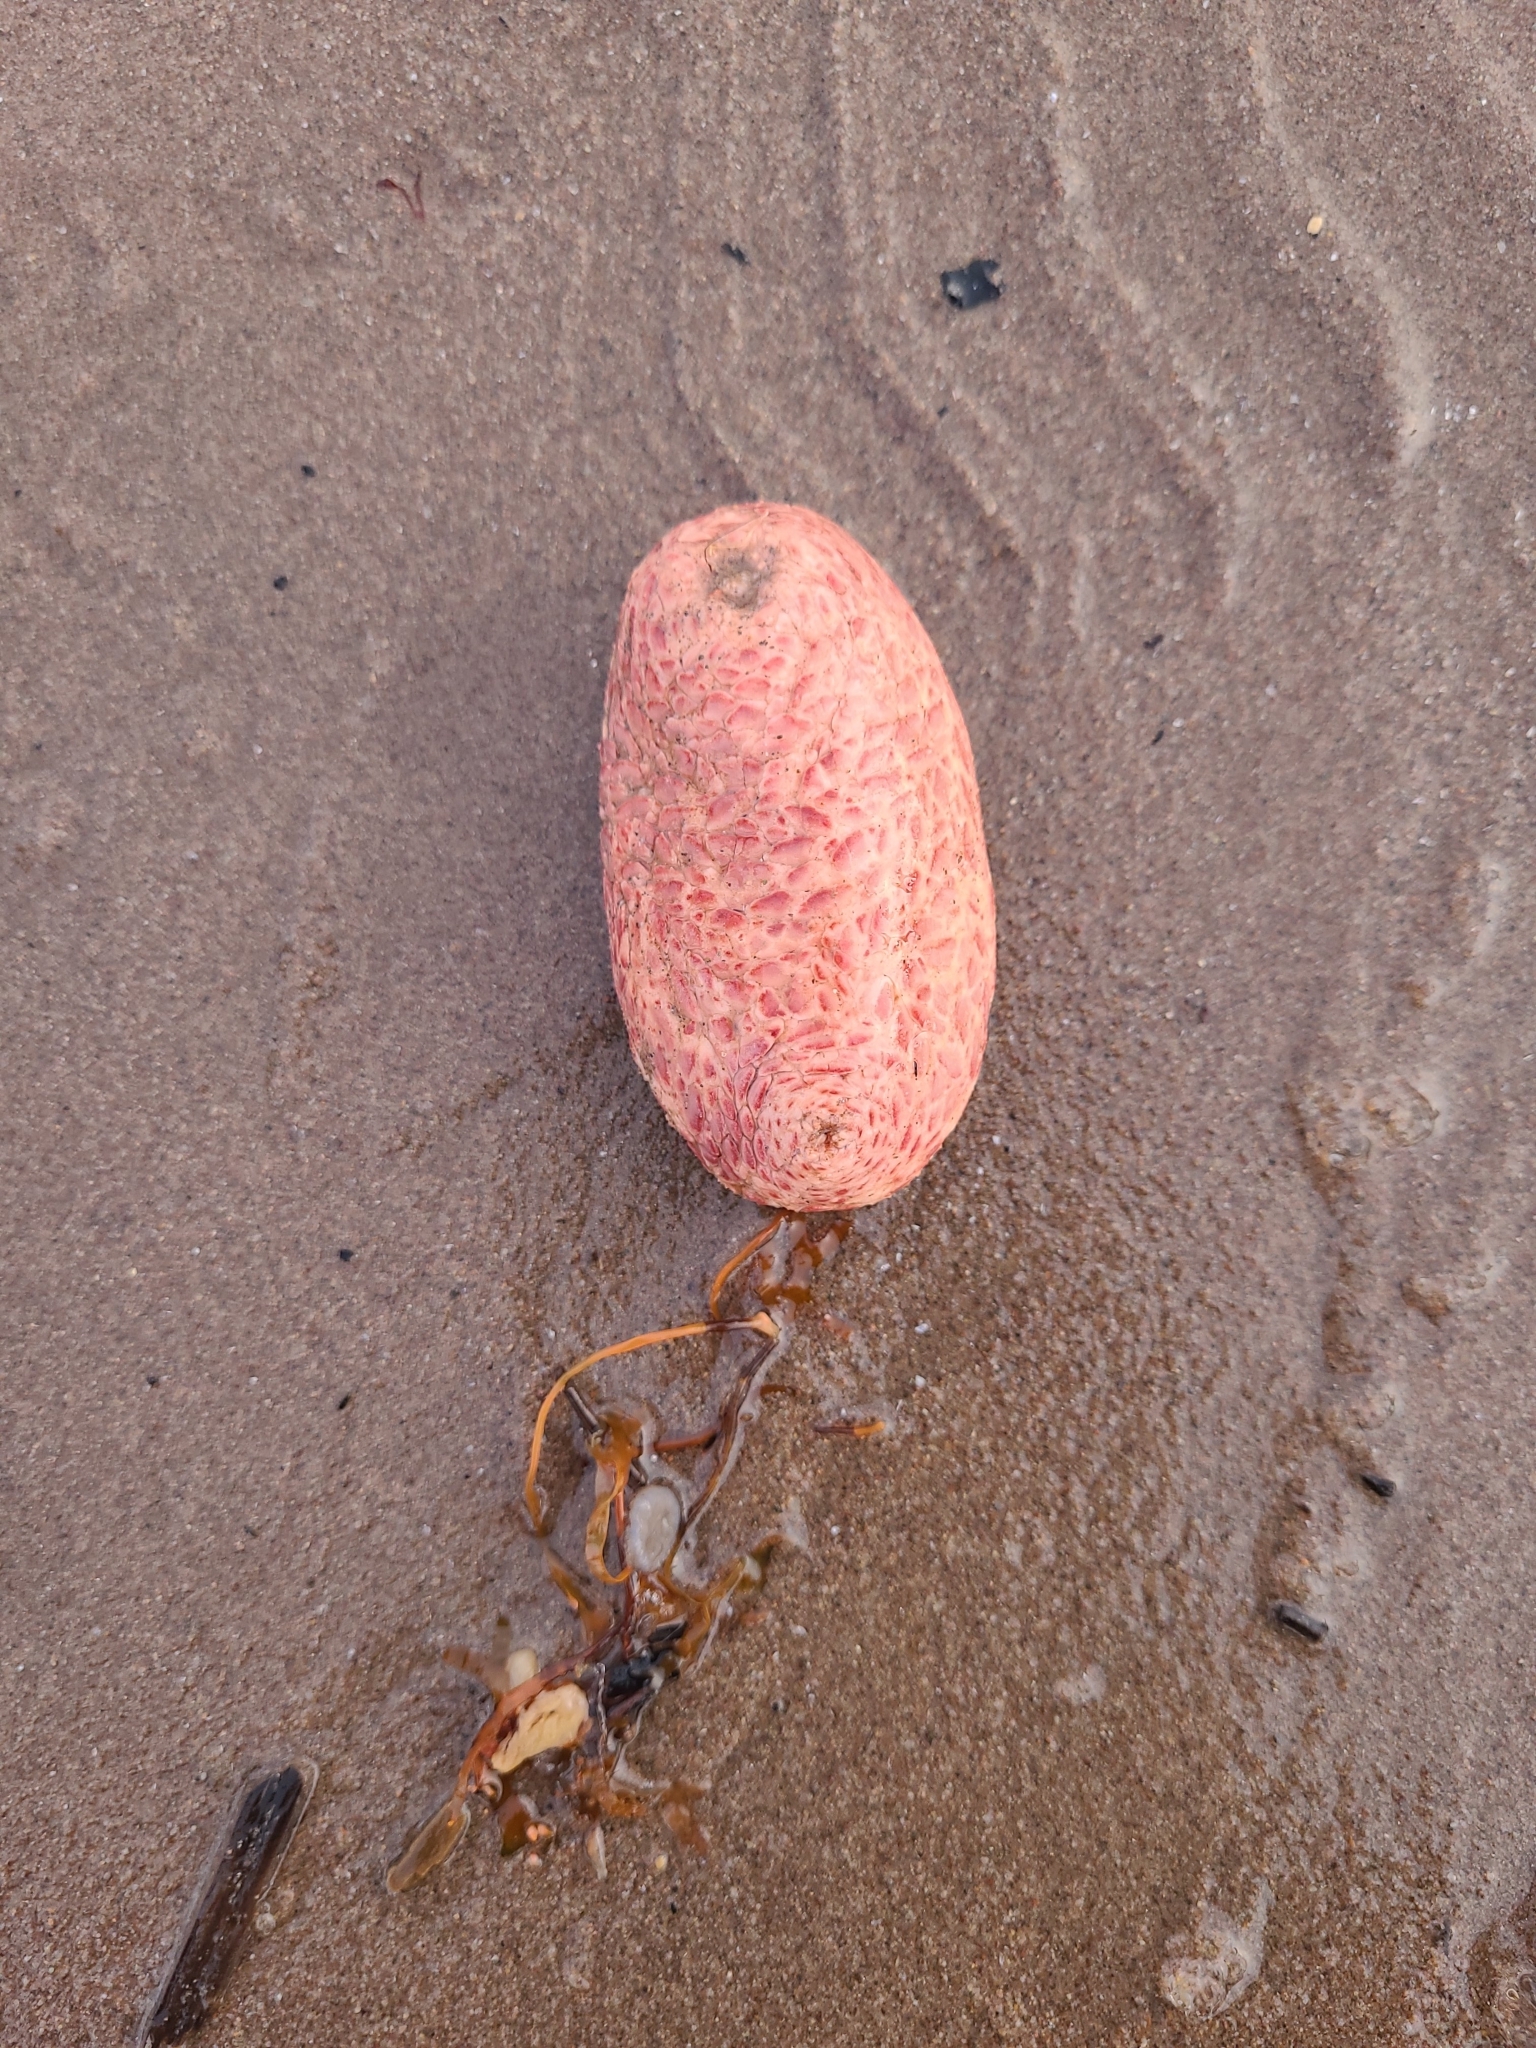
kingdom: Animalia
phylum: Echinodermata
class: Holothuroidea
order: Dendrochirotida
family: Psolidae
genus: Psolus
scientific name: Psolus fabricii
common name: Scarlet psolus
